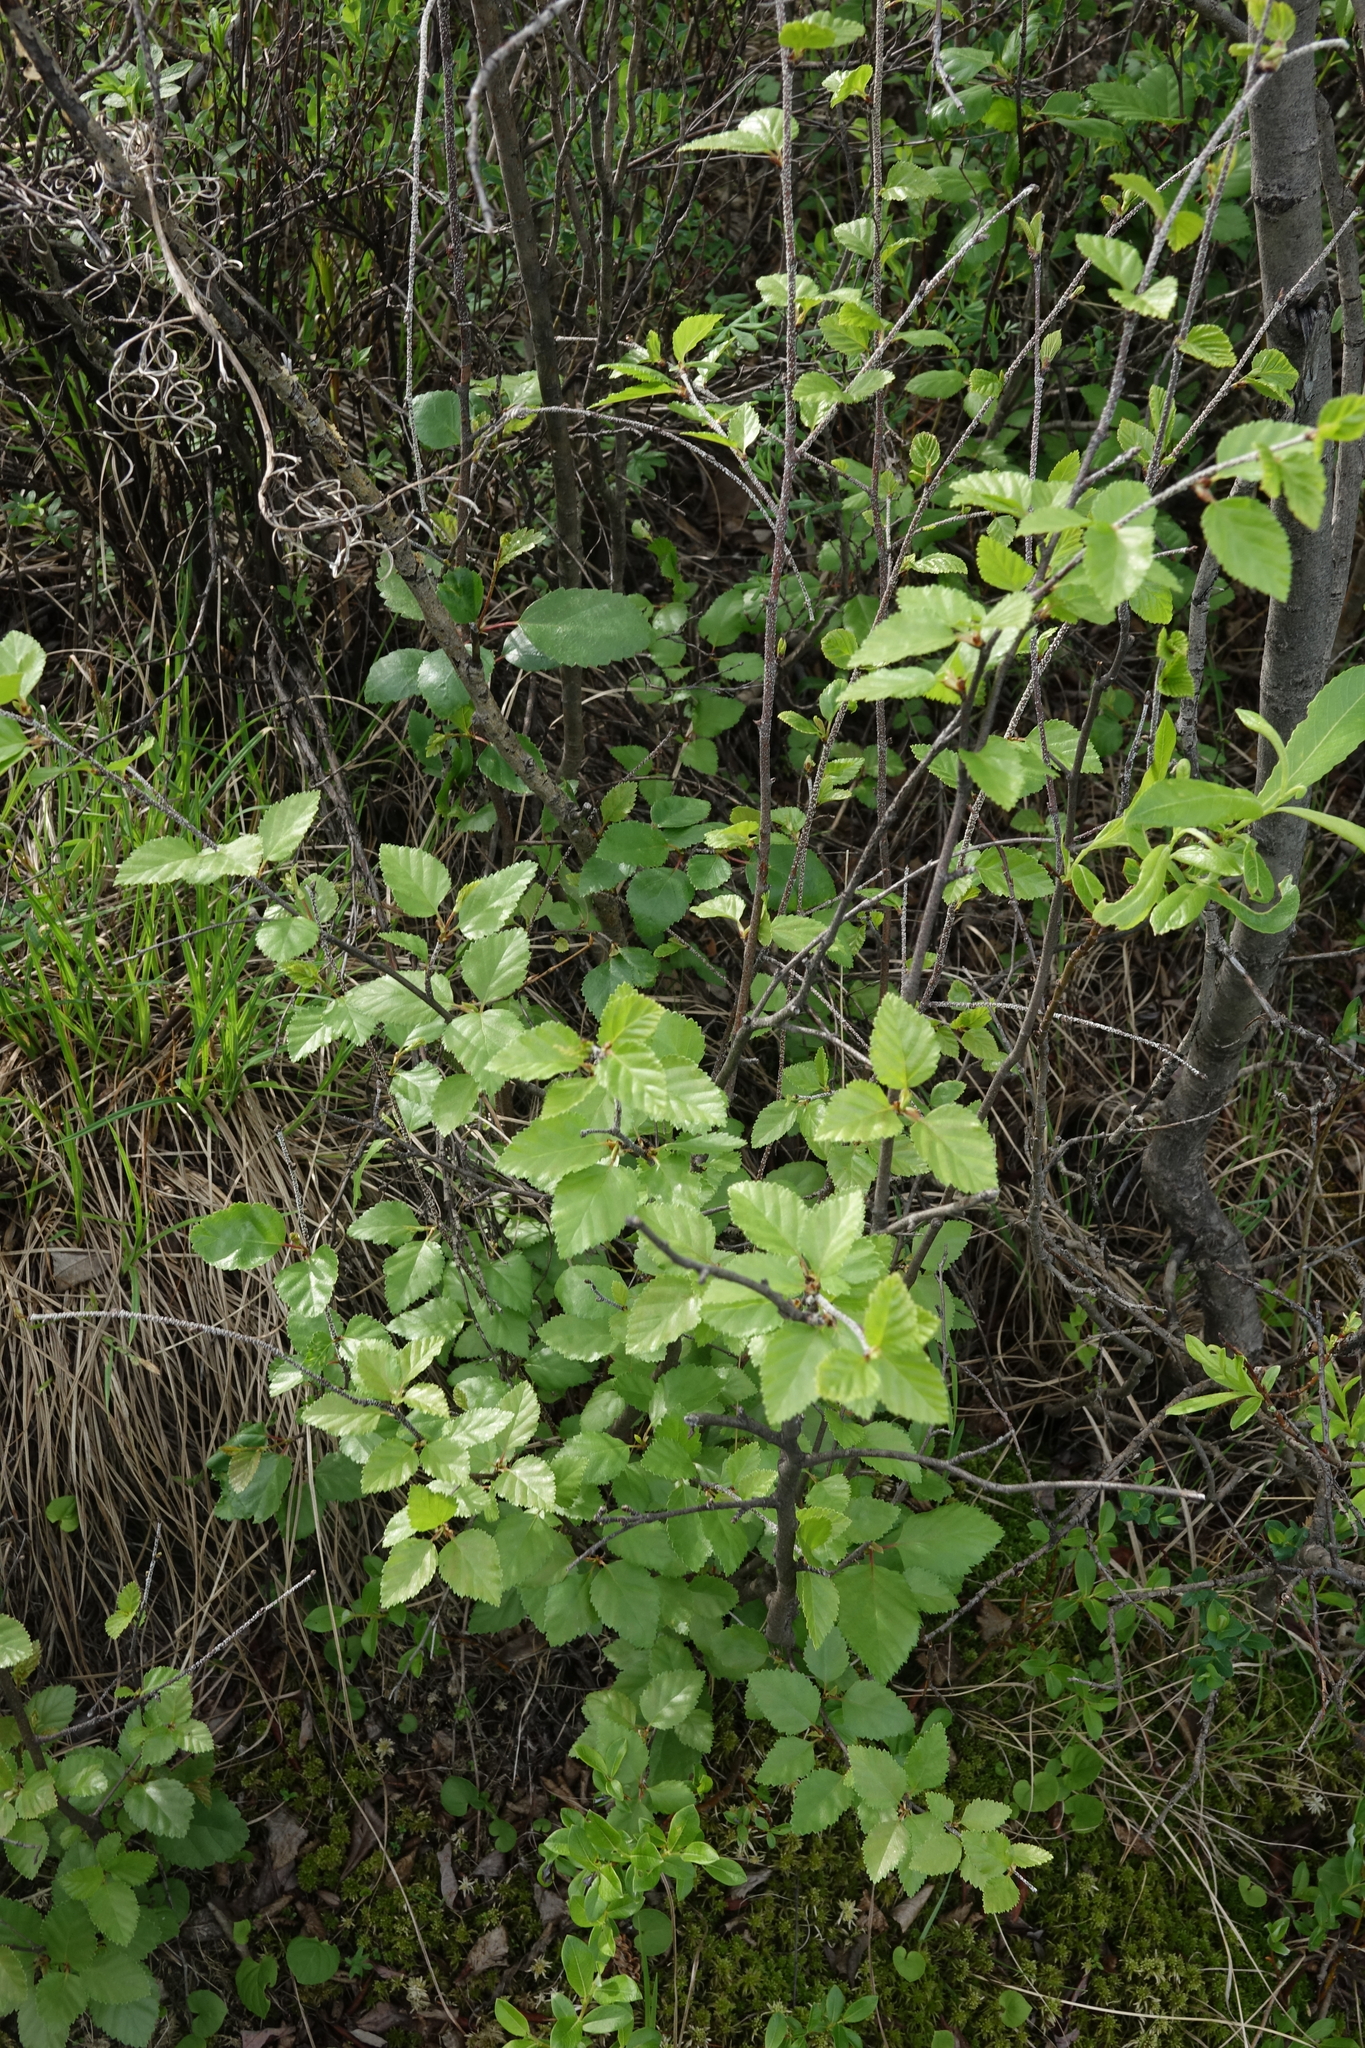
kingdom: Plantae
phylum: Tracheophyta
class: Magnoliopsida
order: Fagales
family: Betulaceae
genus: Betula
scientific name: Betula humilis
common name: Shrubby birch
